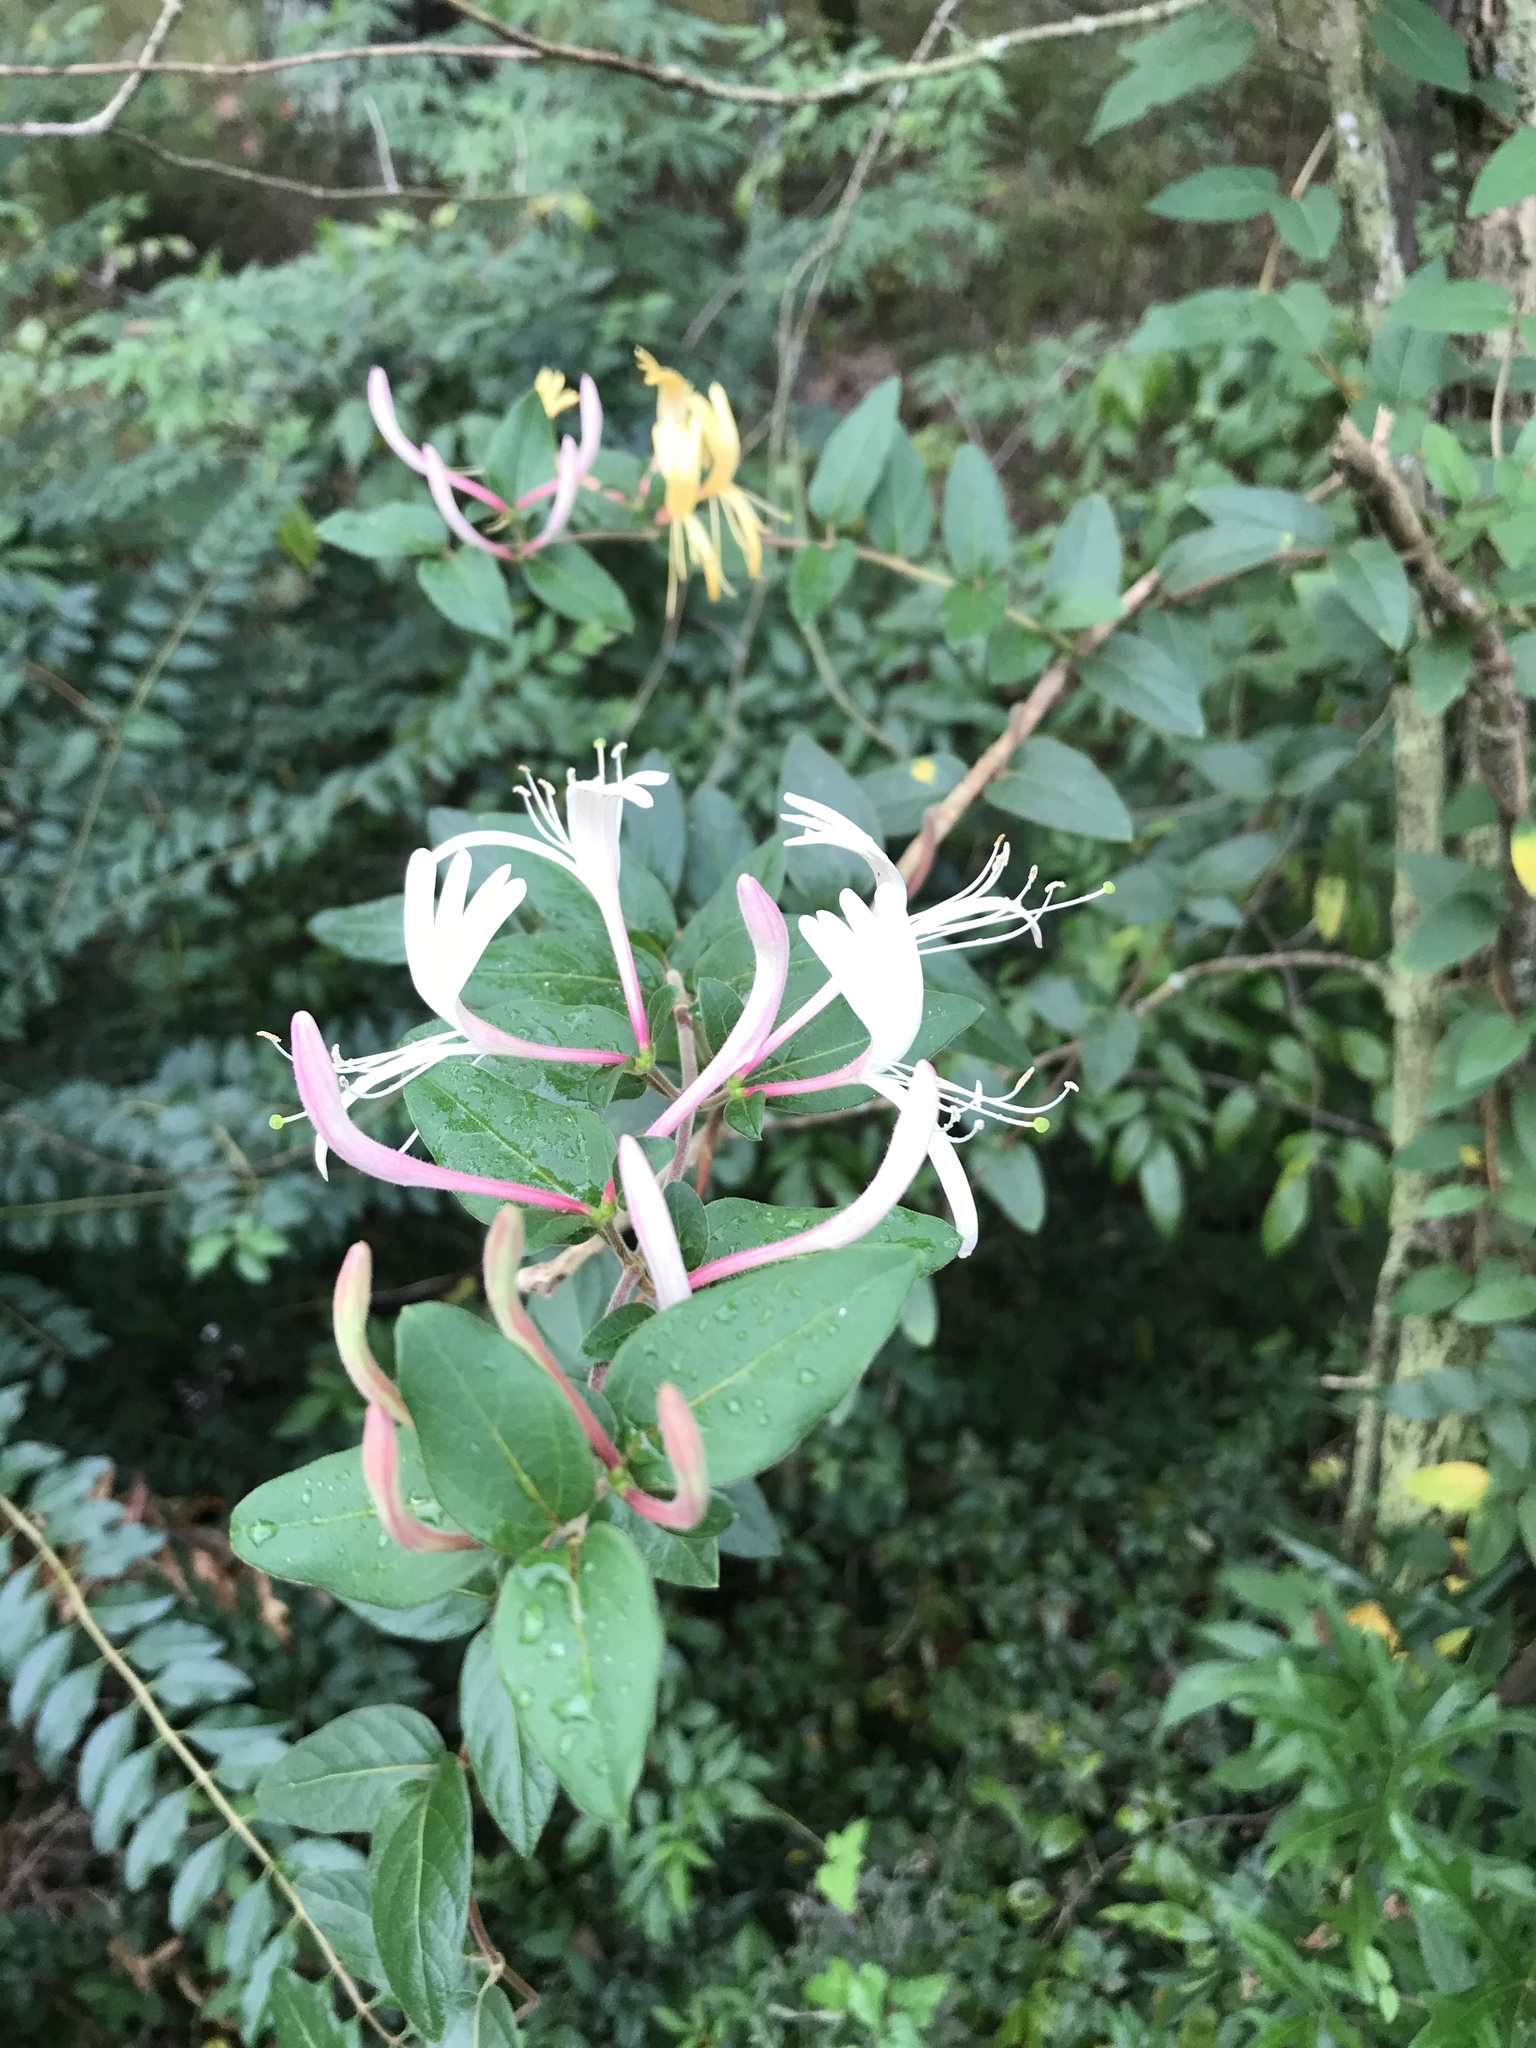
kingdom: Plantae
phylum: Tracheophyta
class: Magnoliopsida
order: Dipsacales
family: Caprifoliaceae
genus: Lonicera
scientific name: Lonicera japonica
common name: Japanese honeysuckle
